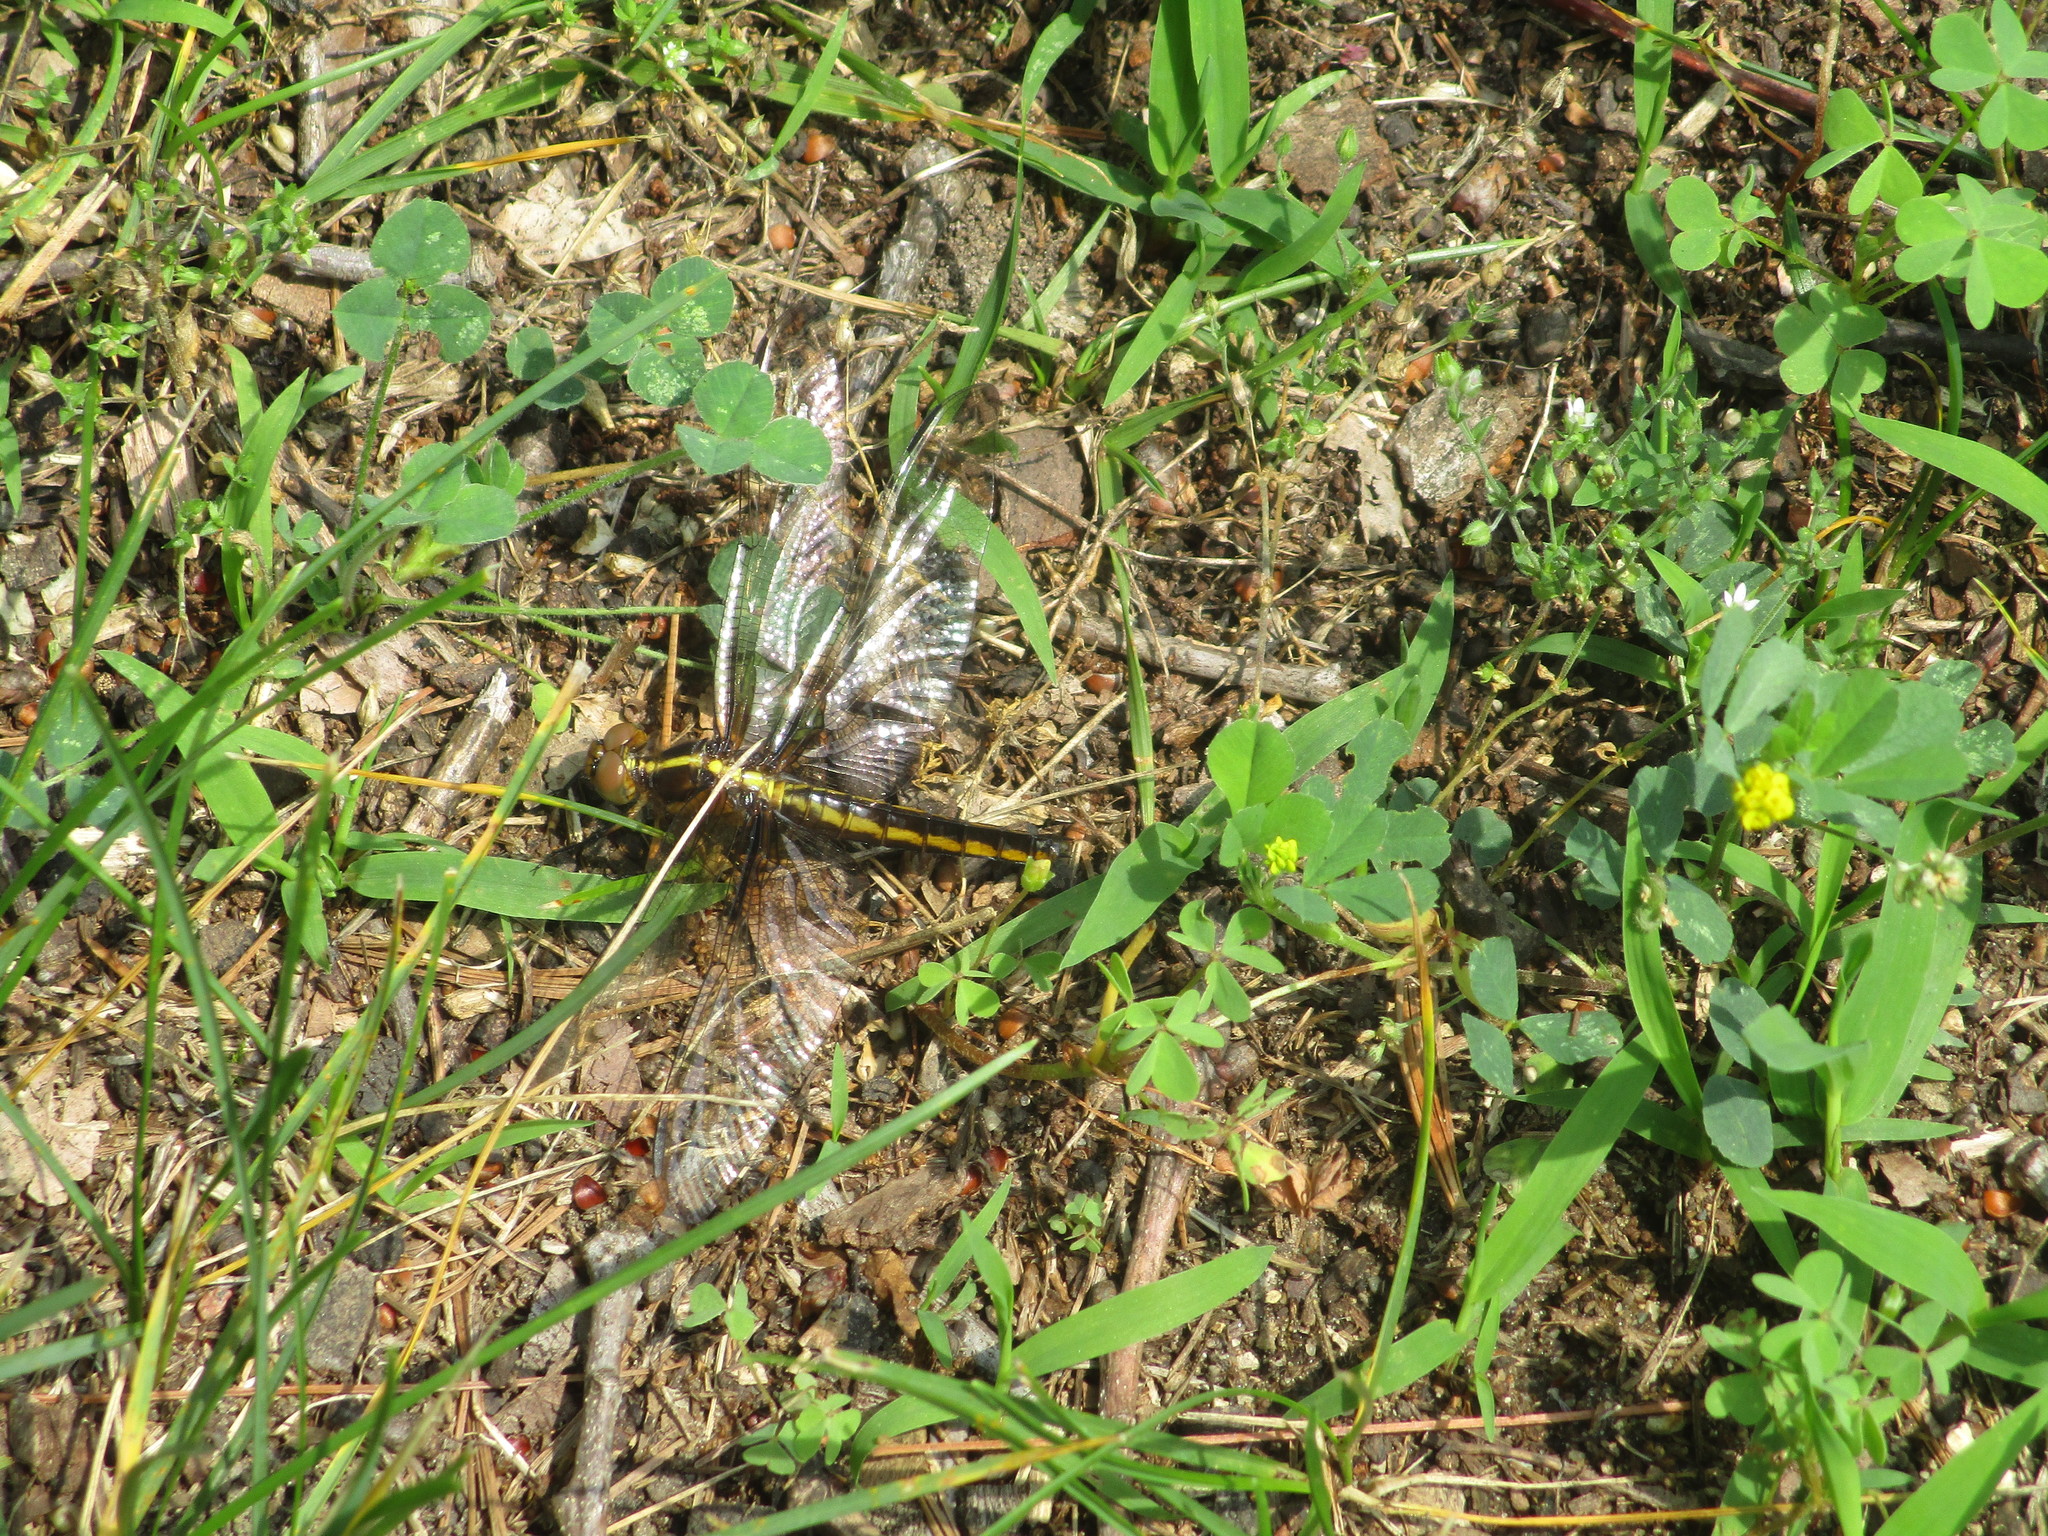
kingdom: Animalia
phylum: Arthropoda
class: Insecta
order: Odonata
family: Libellulidae
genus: Libellula
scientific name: Libellula luctuosa
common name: Widow skimmer
